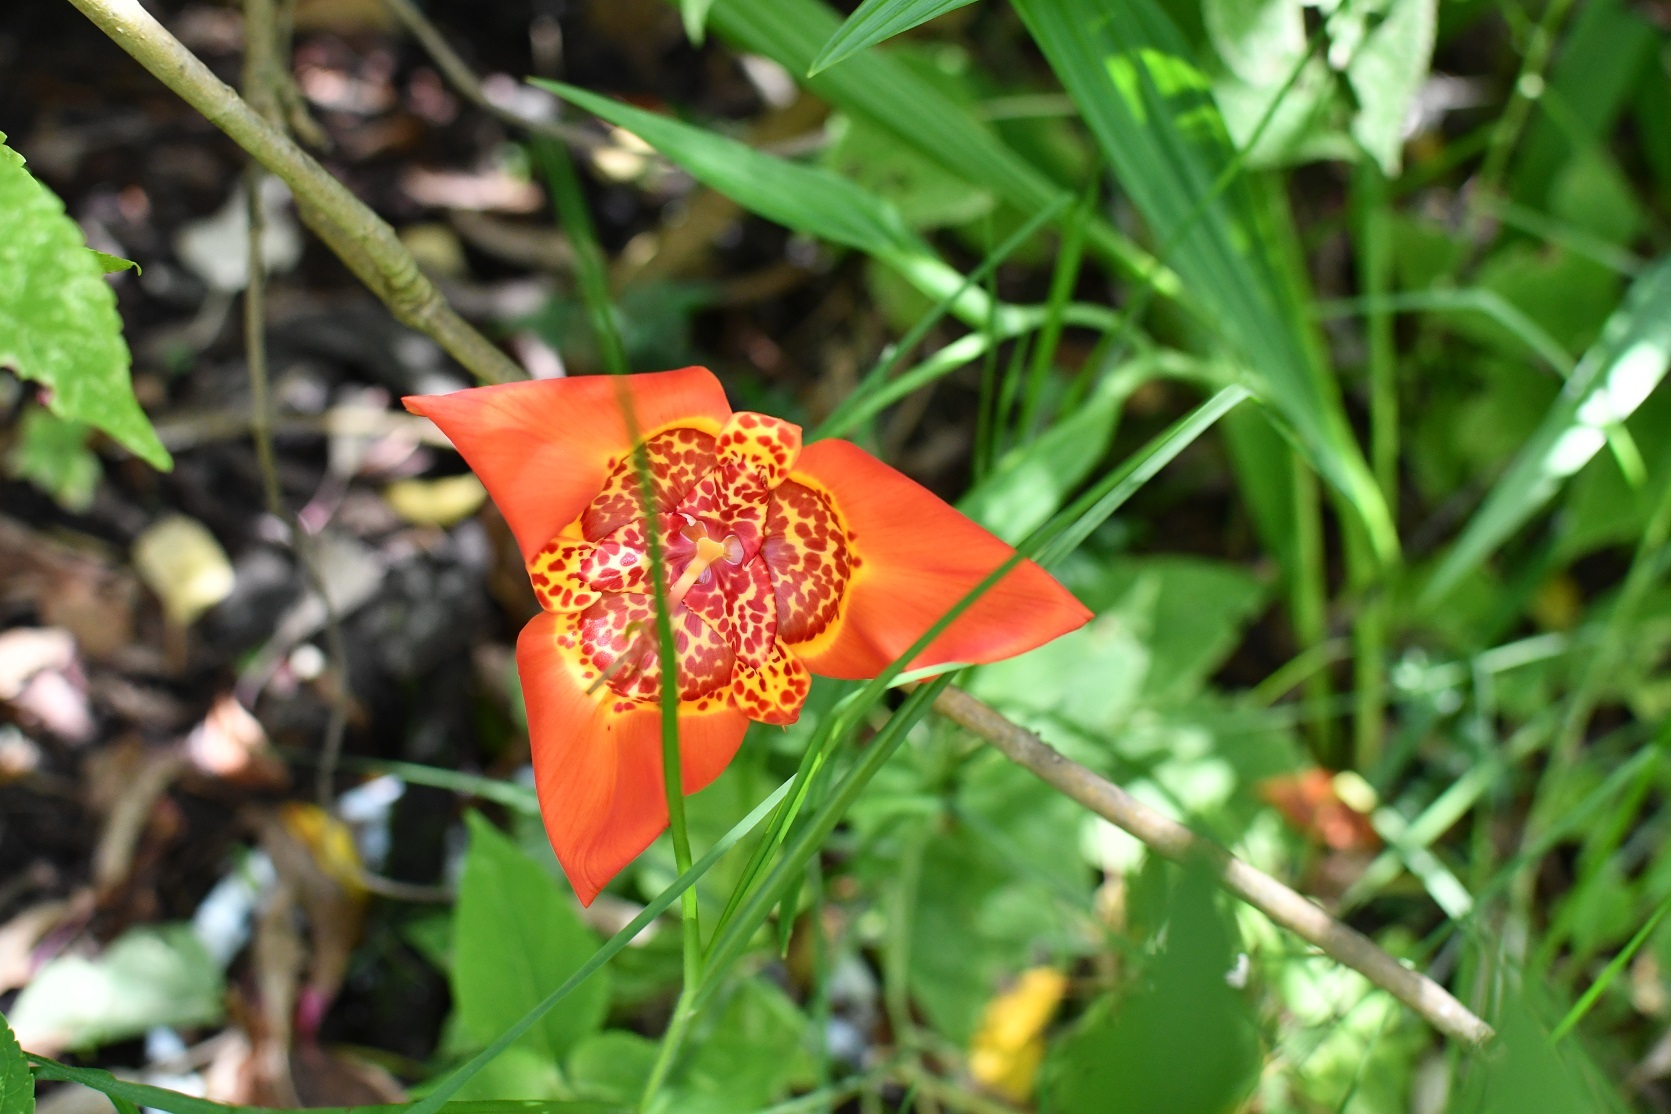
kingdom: Plantae
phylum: Tracheophyta
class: Liliopsida
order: Asparagales
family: Iridaceae
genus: Tigridia
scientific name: Tigridia pavonia
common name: Peacock-flower
